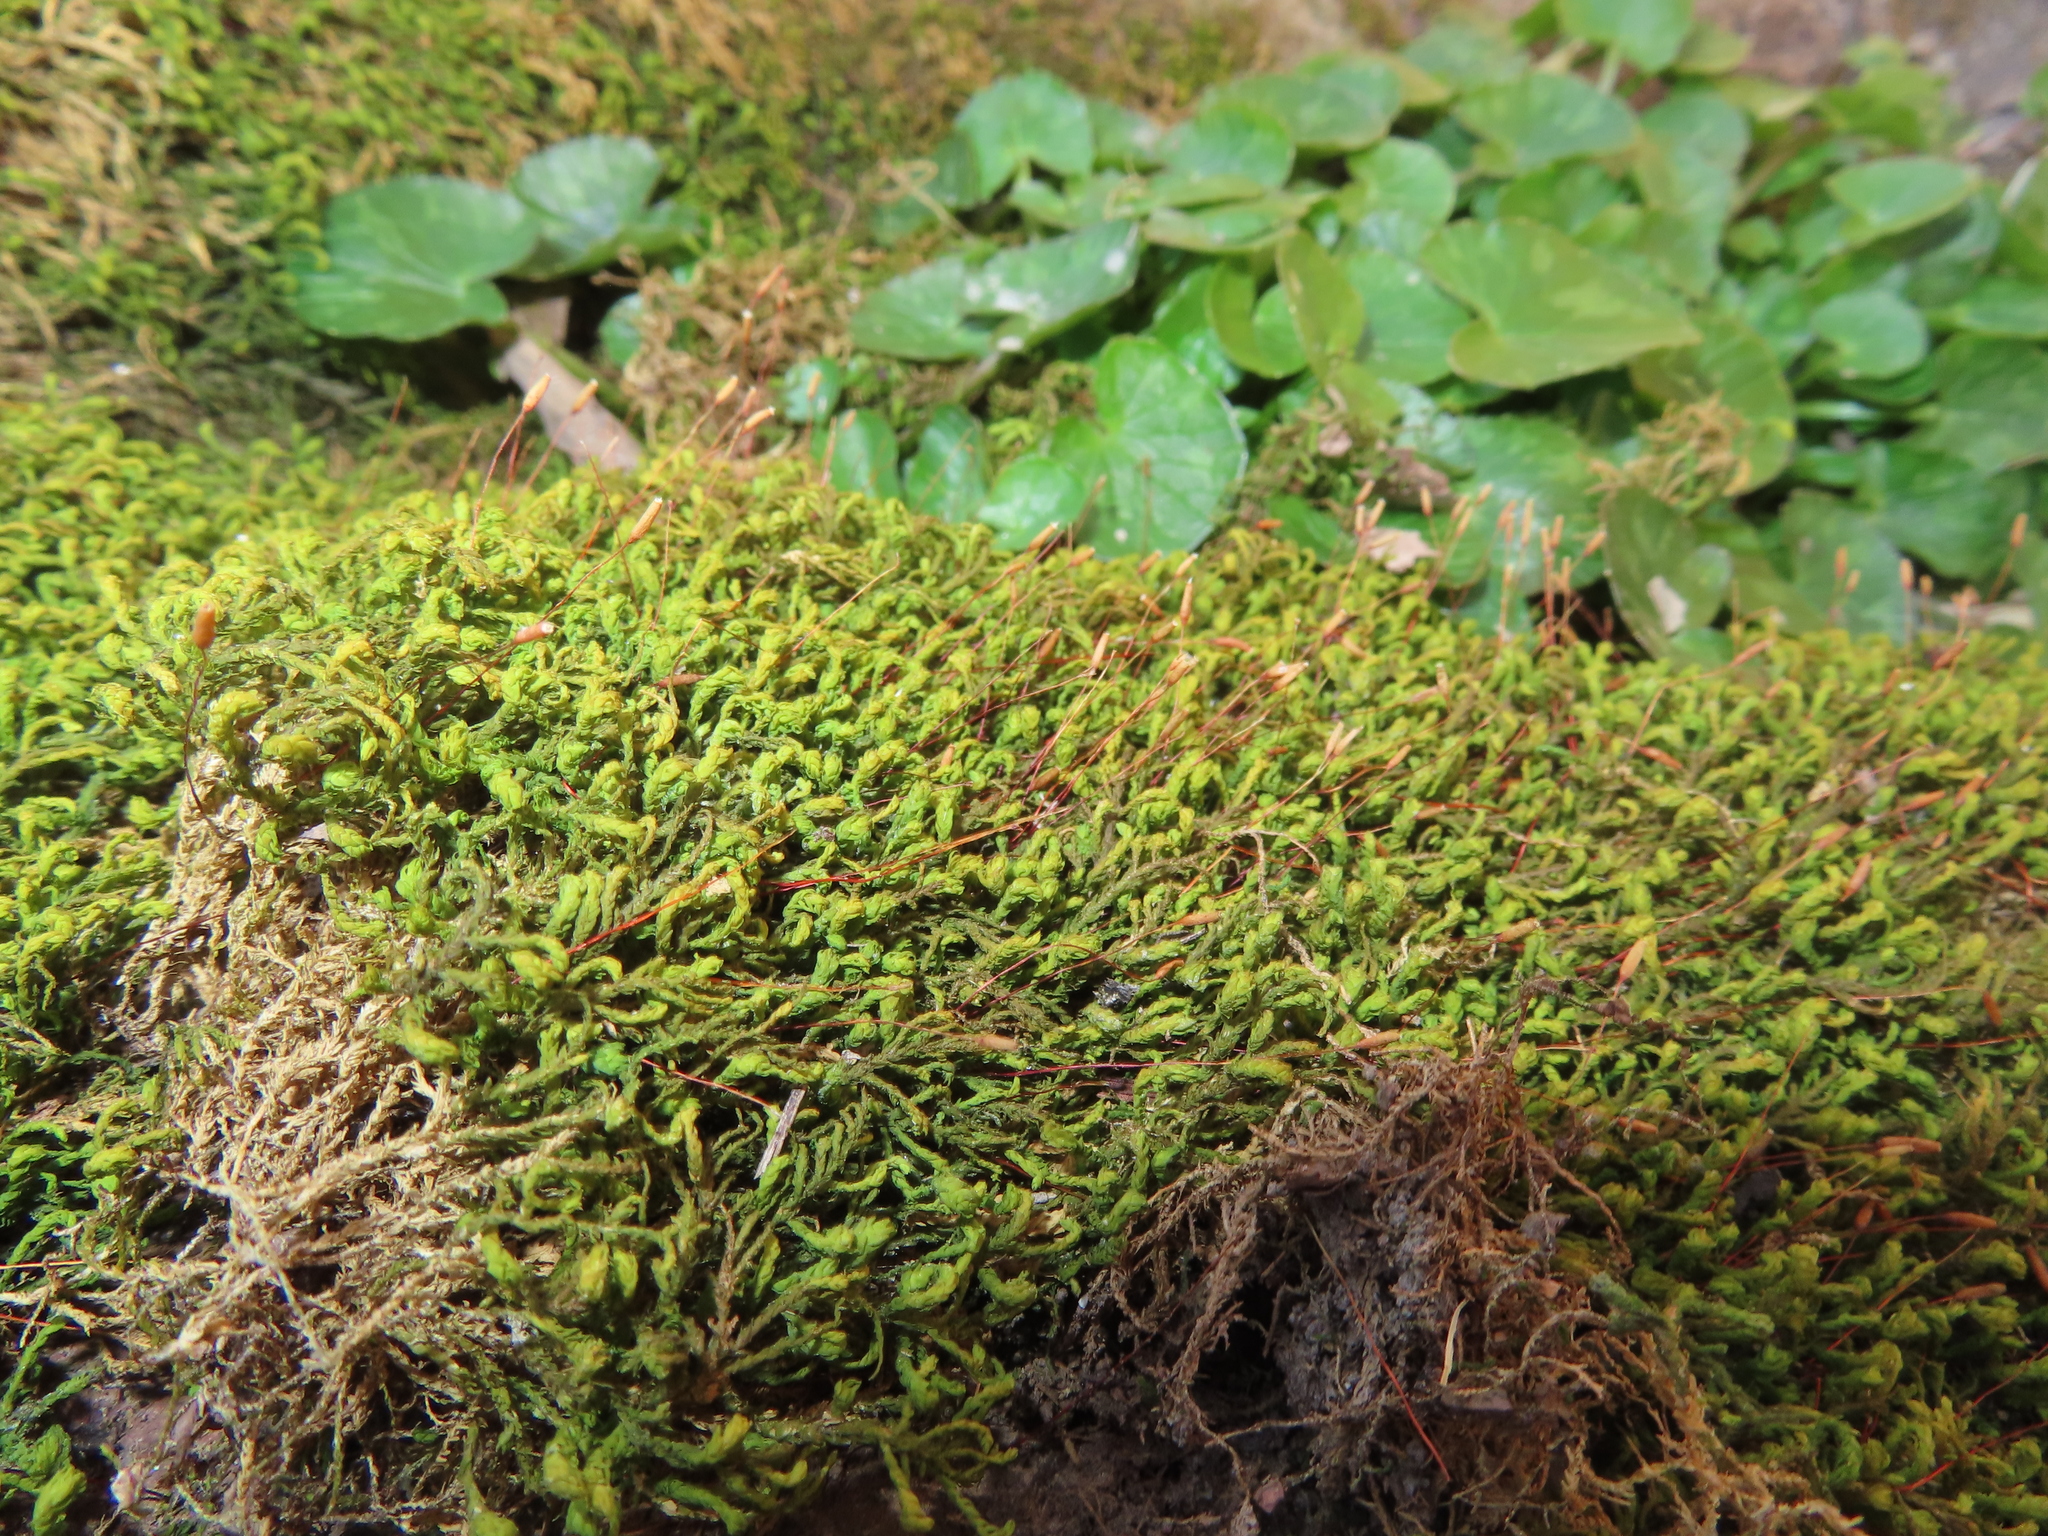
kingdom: Plantae
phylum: Bryophyta
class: Bryopsida
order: Hypnales
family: Neckeraceae
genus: Pseudanomodon
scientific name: Pseudanomodon attenuatus
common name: Tree-skirt moss
